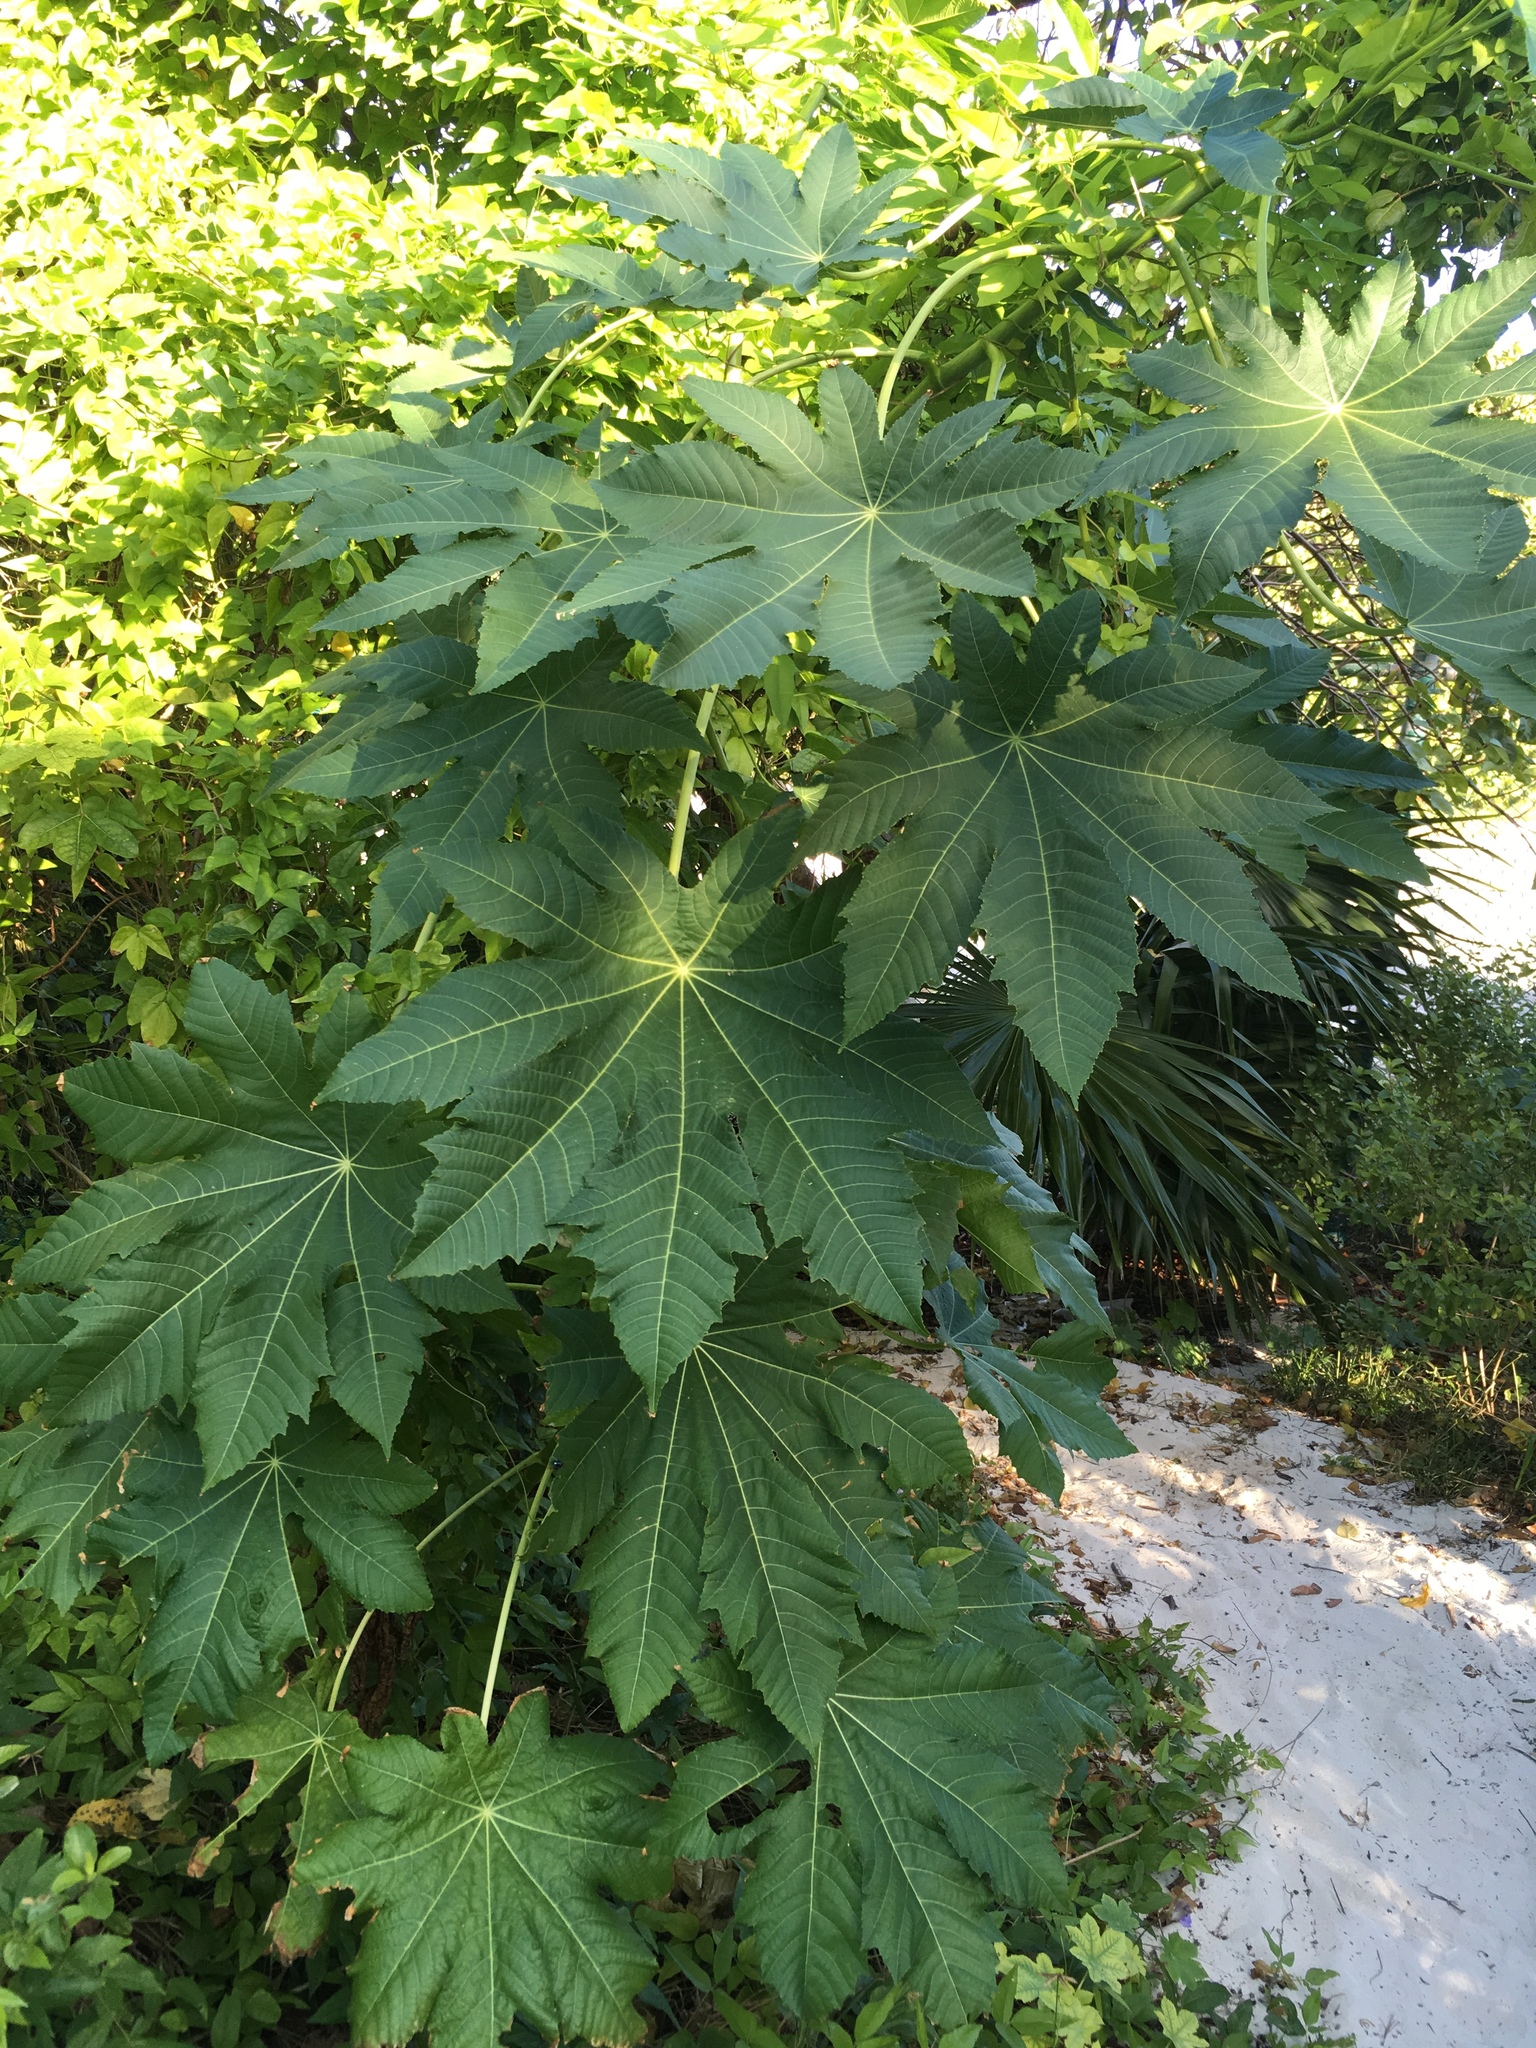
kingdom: Plantae
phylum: Tracheophyta
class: Magnoliopsida
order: Malpighiales
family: Euphorbiaceae
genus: Ricinus
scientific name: Ricinus communis
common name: Castor-oil-plant
